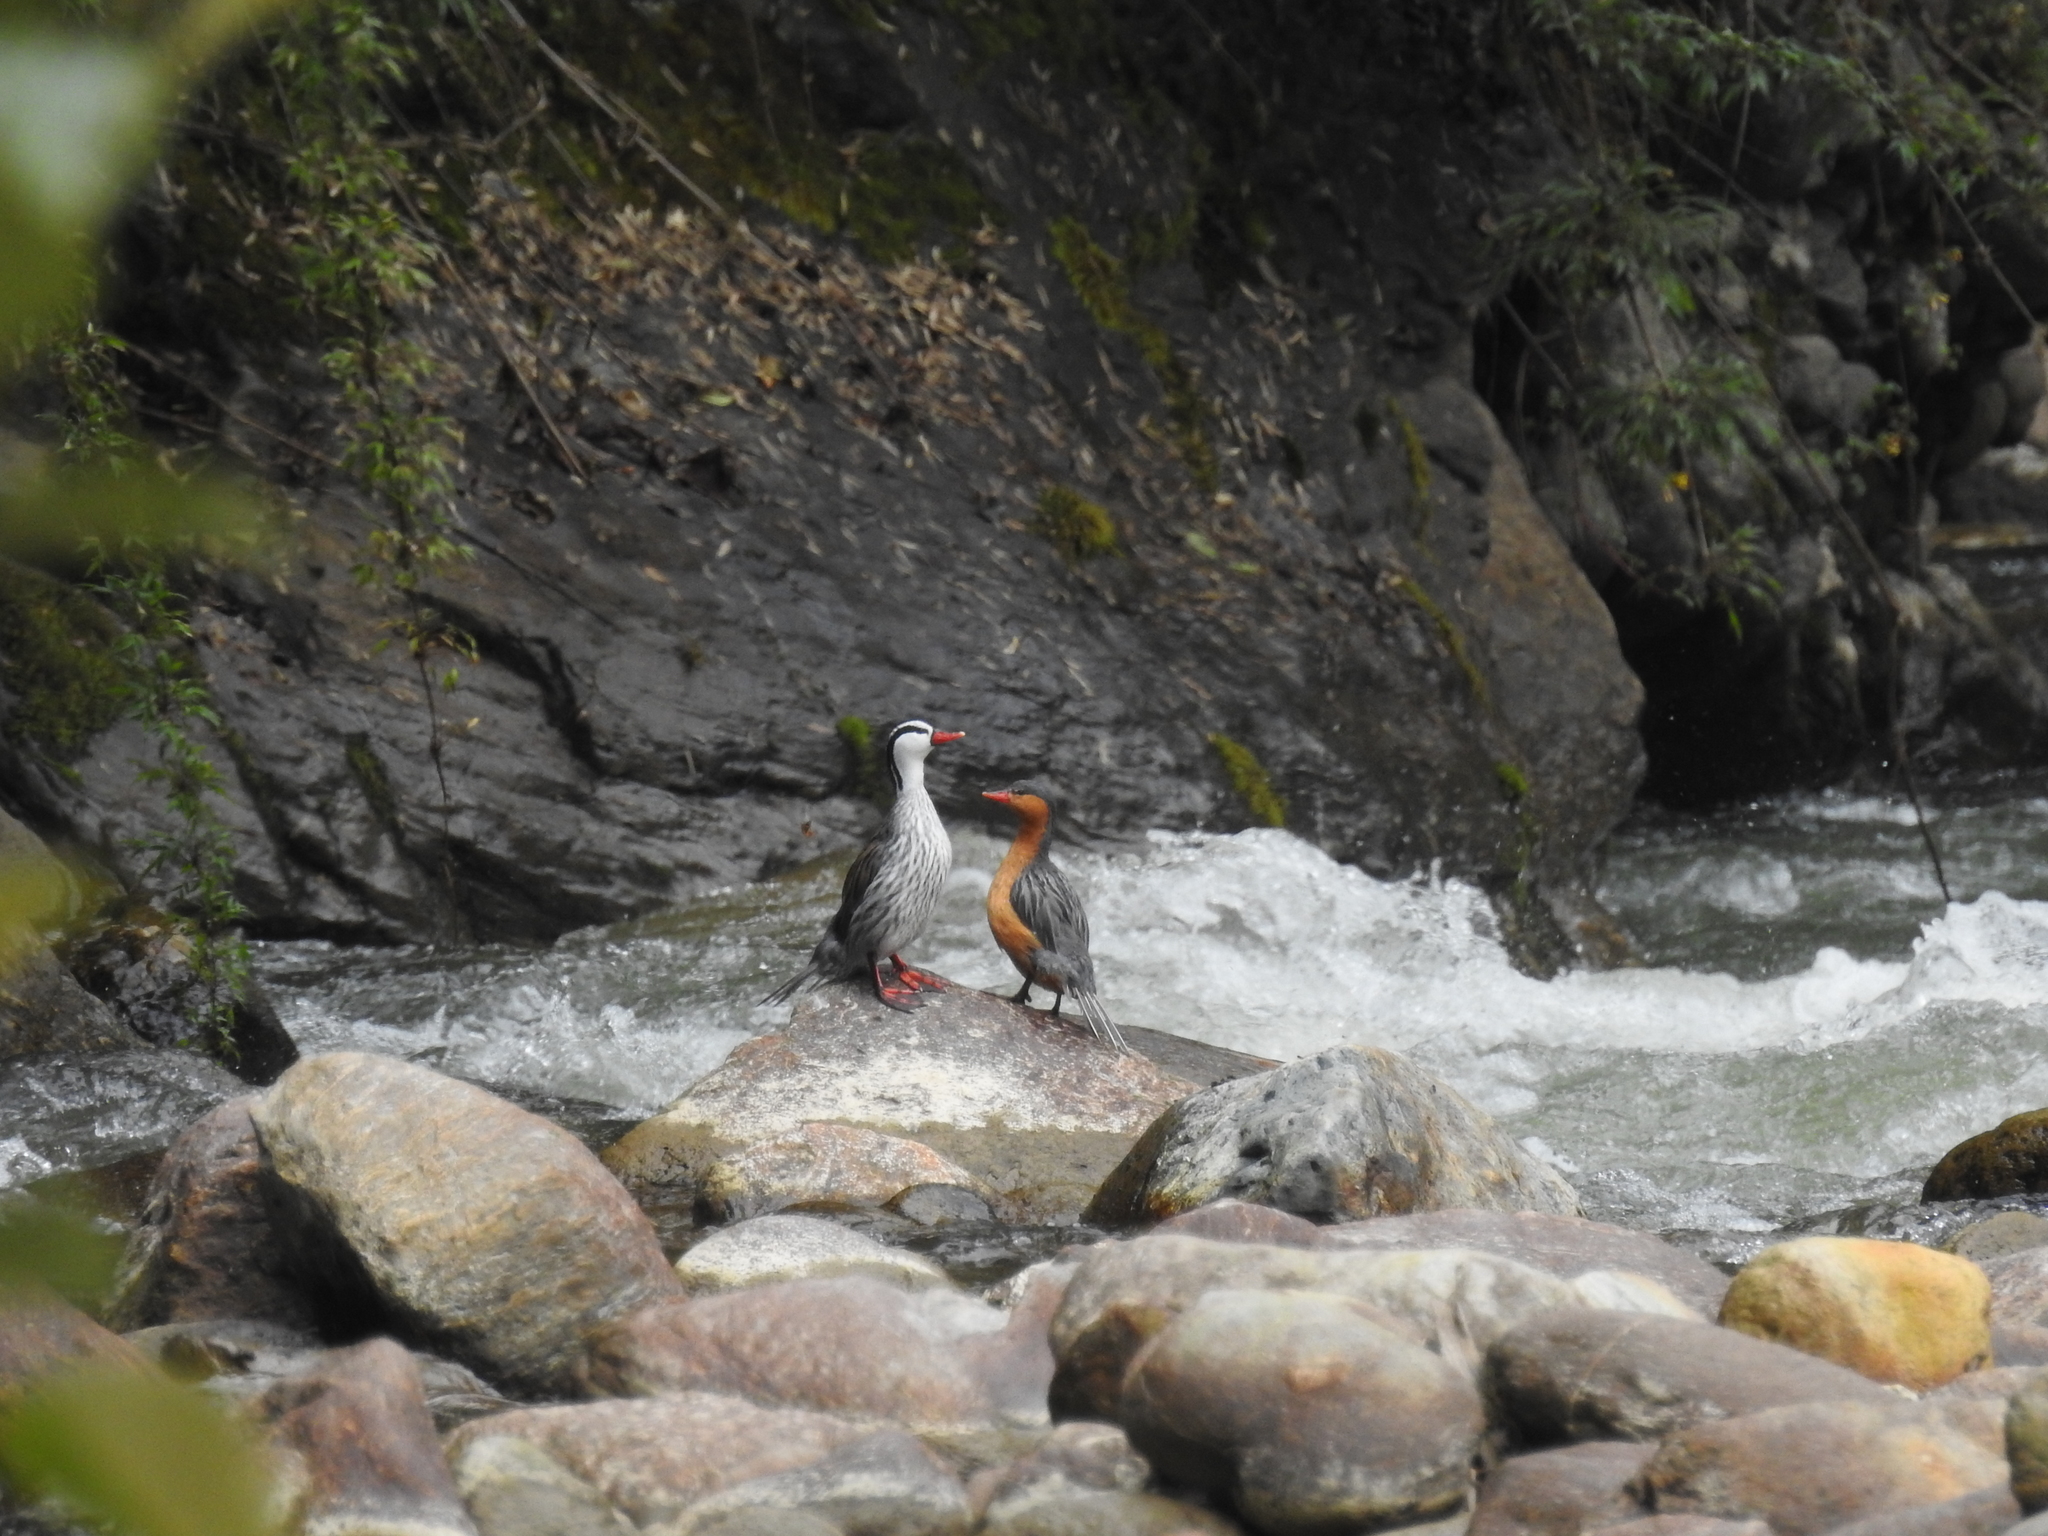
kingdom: Animalia
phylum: Chordata
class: Aves
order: Anseriformes
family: Anatidae
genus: Merganetta
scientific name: Merganetta armata
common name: Torrent duck
